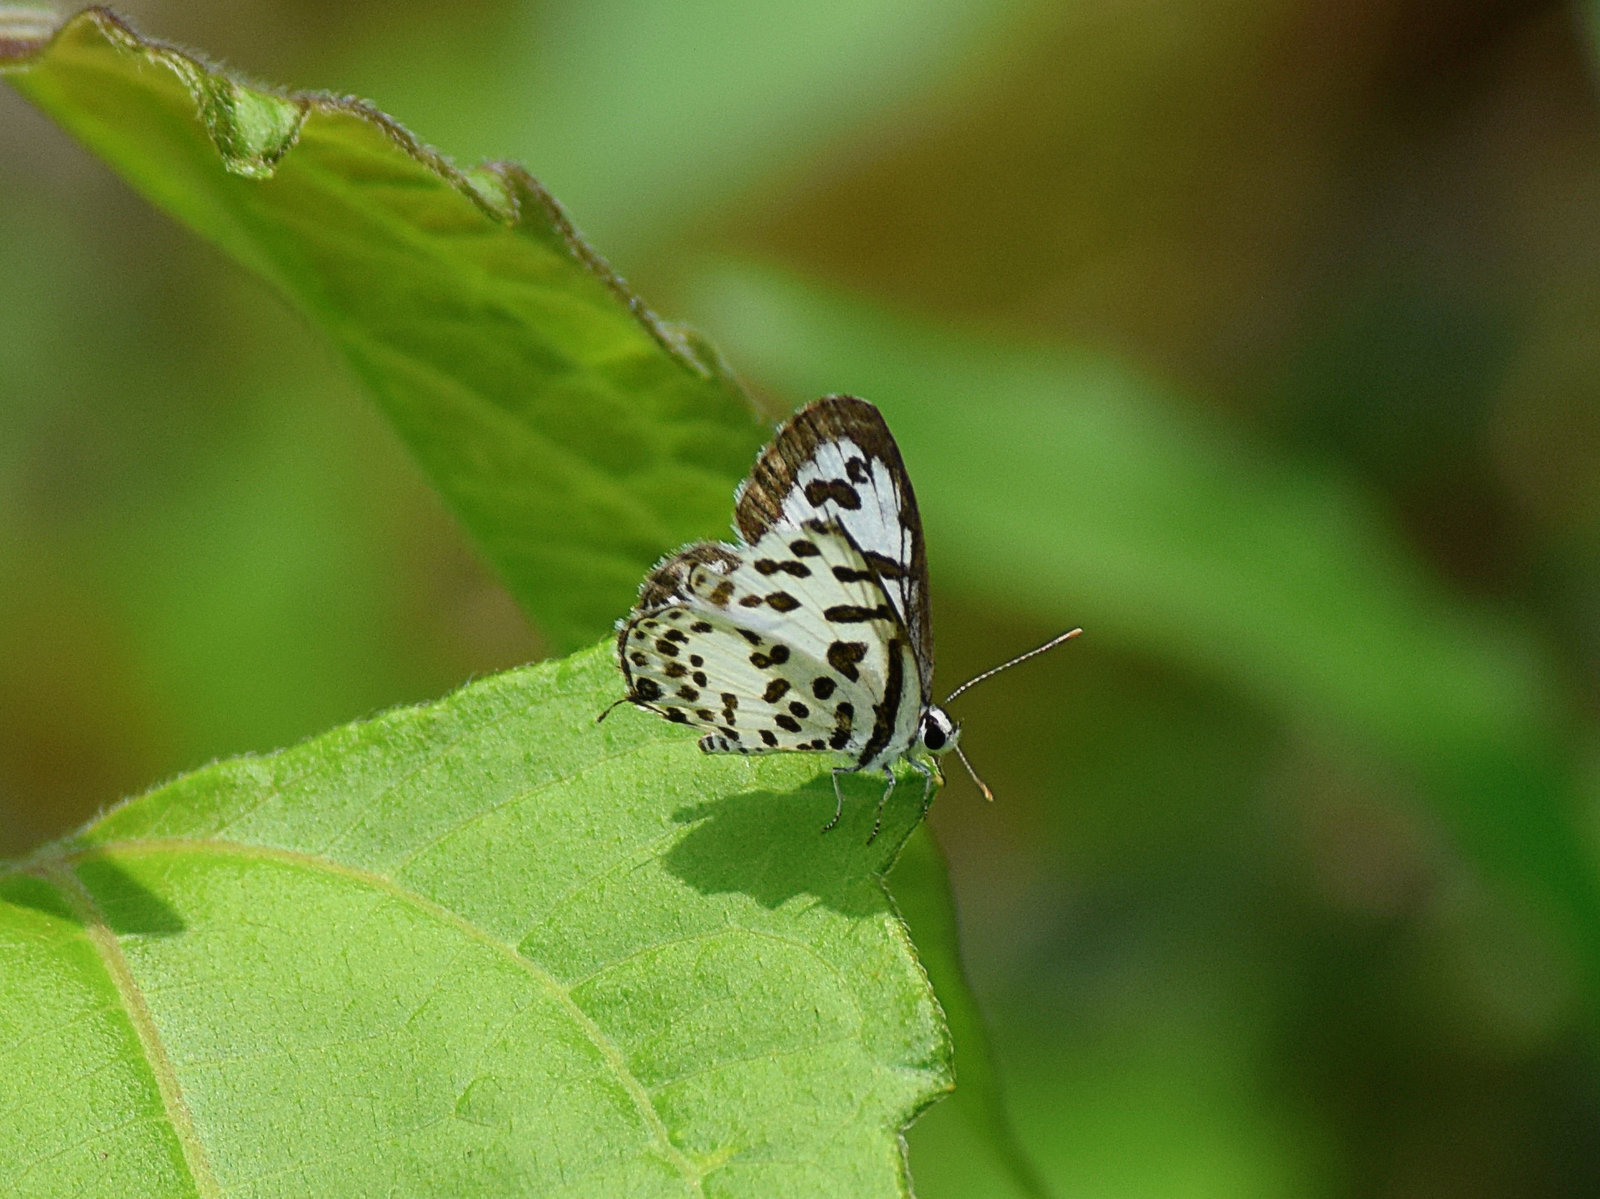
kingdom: Animalia
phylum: Arthropoda
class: Insecta
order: Lepidoptera
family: Lycaenidae
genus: Castalius
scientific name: Castalius rosimon
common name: Common pierrot
